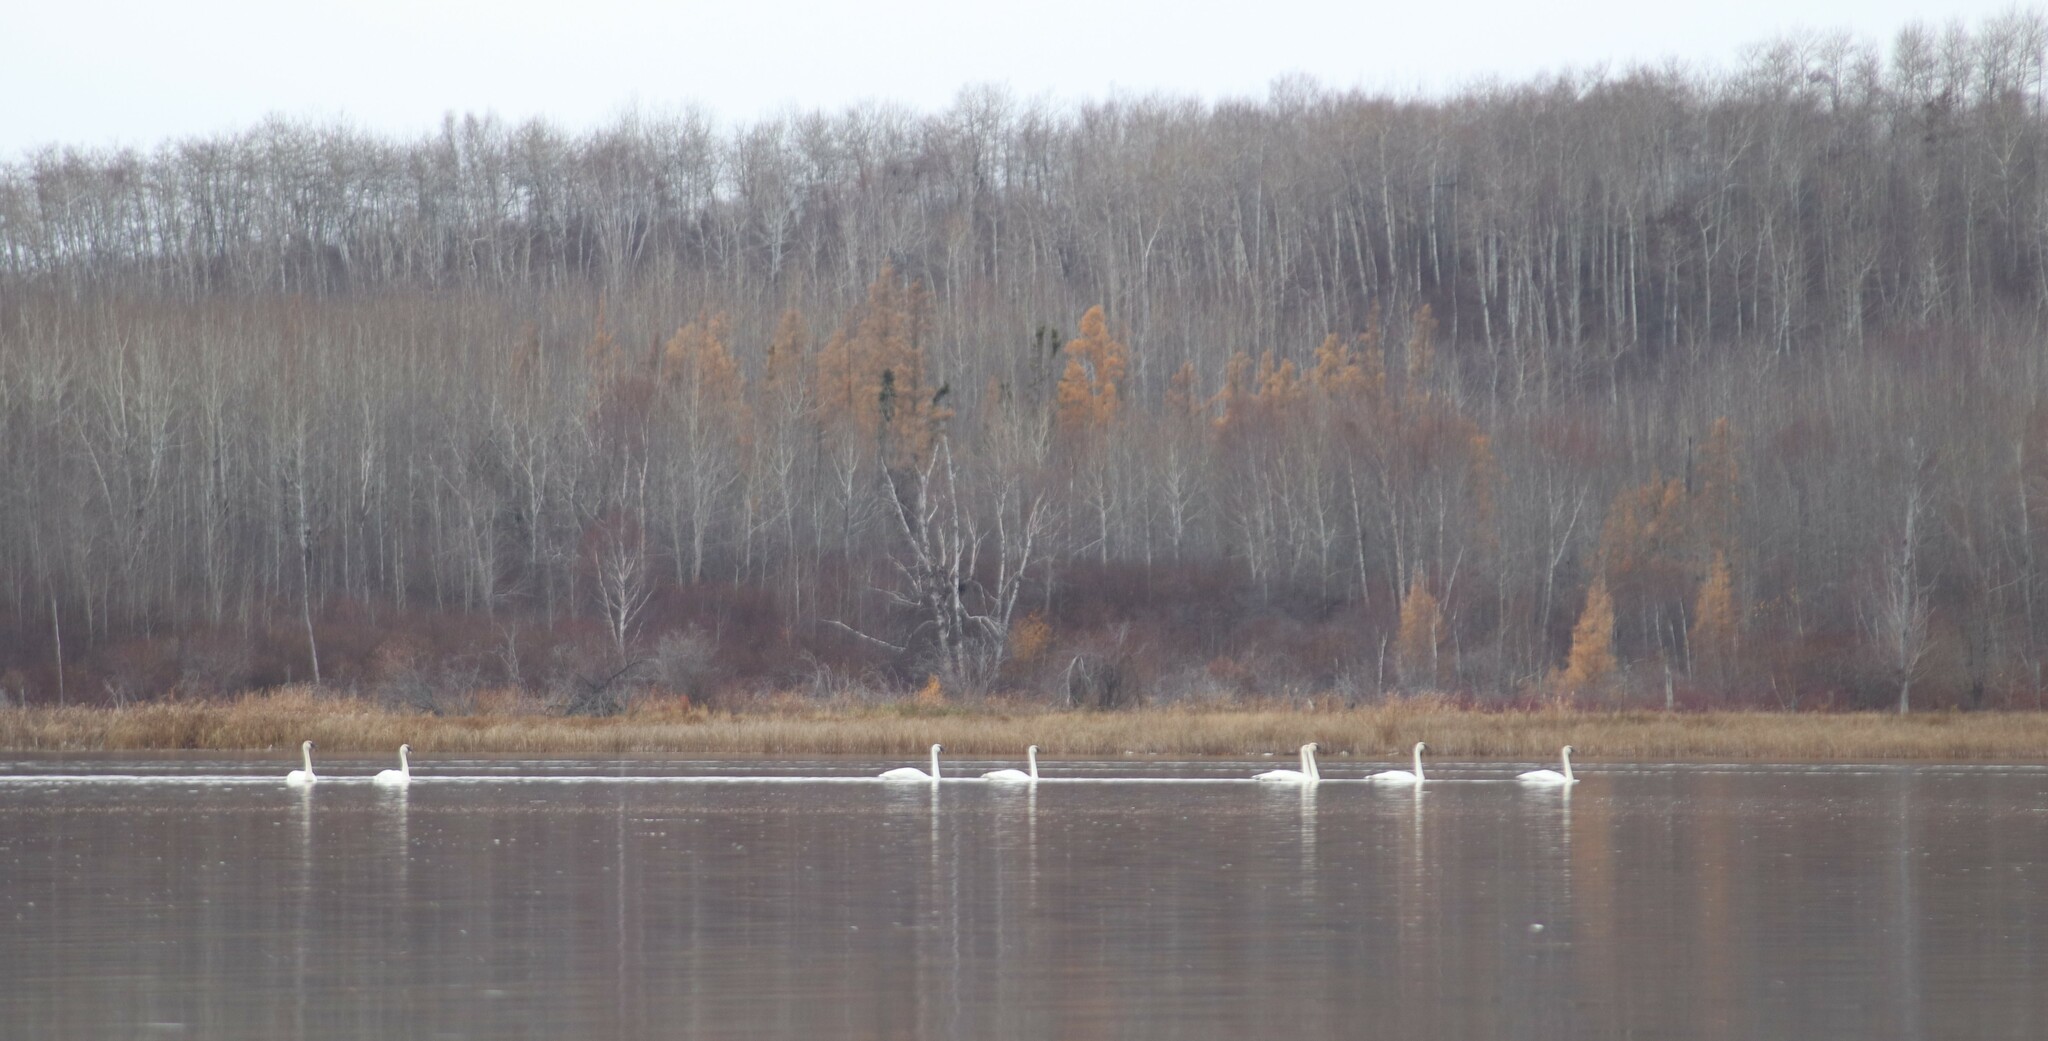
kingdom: Animalia
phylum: Chordata
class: Aves
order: Anseriformes
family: Anatidae
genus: Cygnus
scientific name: Cygnus buccinator
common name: Trumpeter swan
